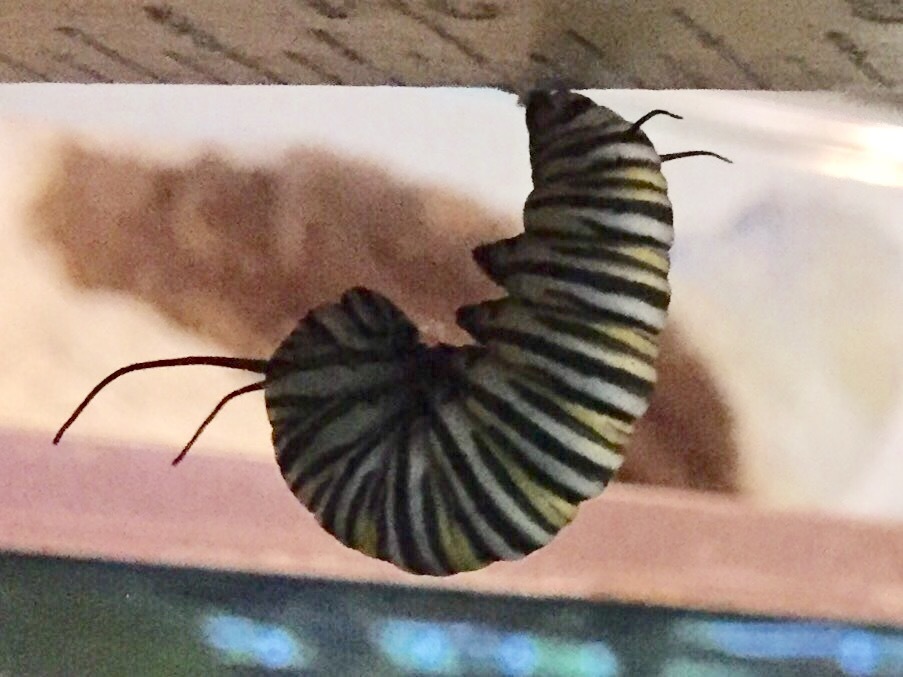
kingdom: Animalia
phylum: Arthropoda
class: Insecta
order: Lepidoptera
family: Nymphalidae
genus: Danaus
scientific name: Danaus plexippus
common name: Monarch
